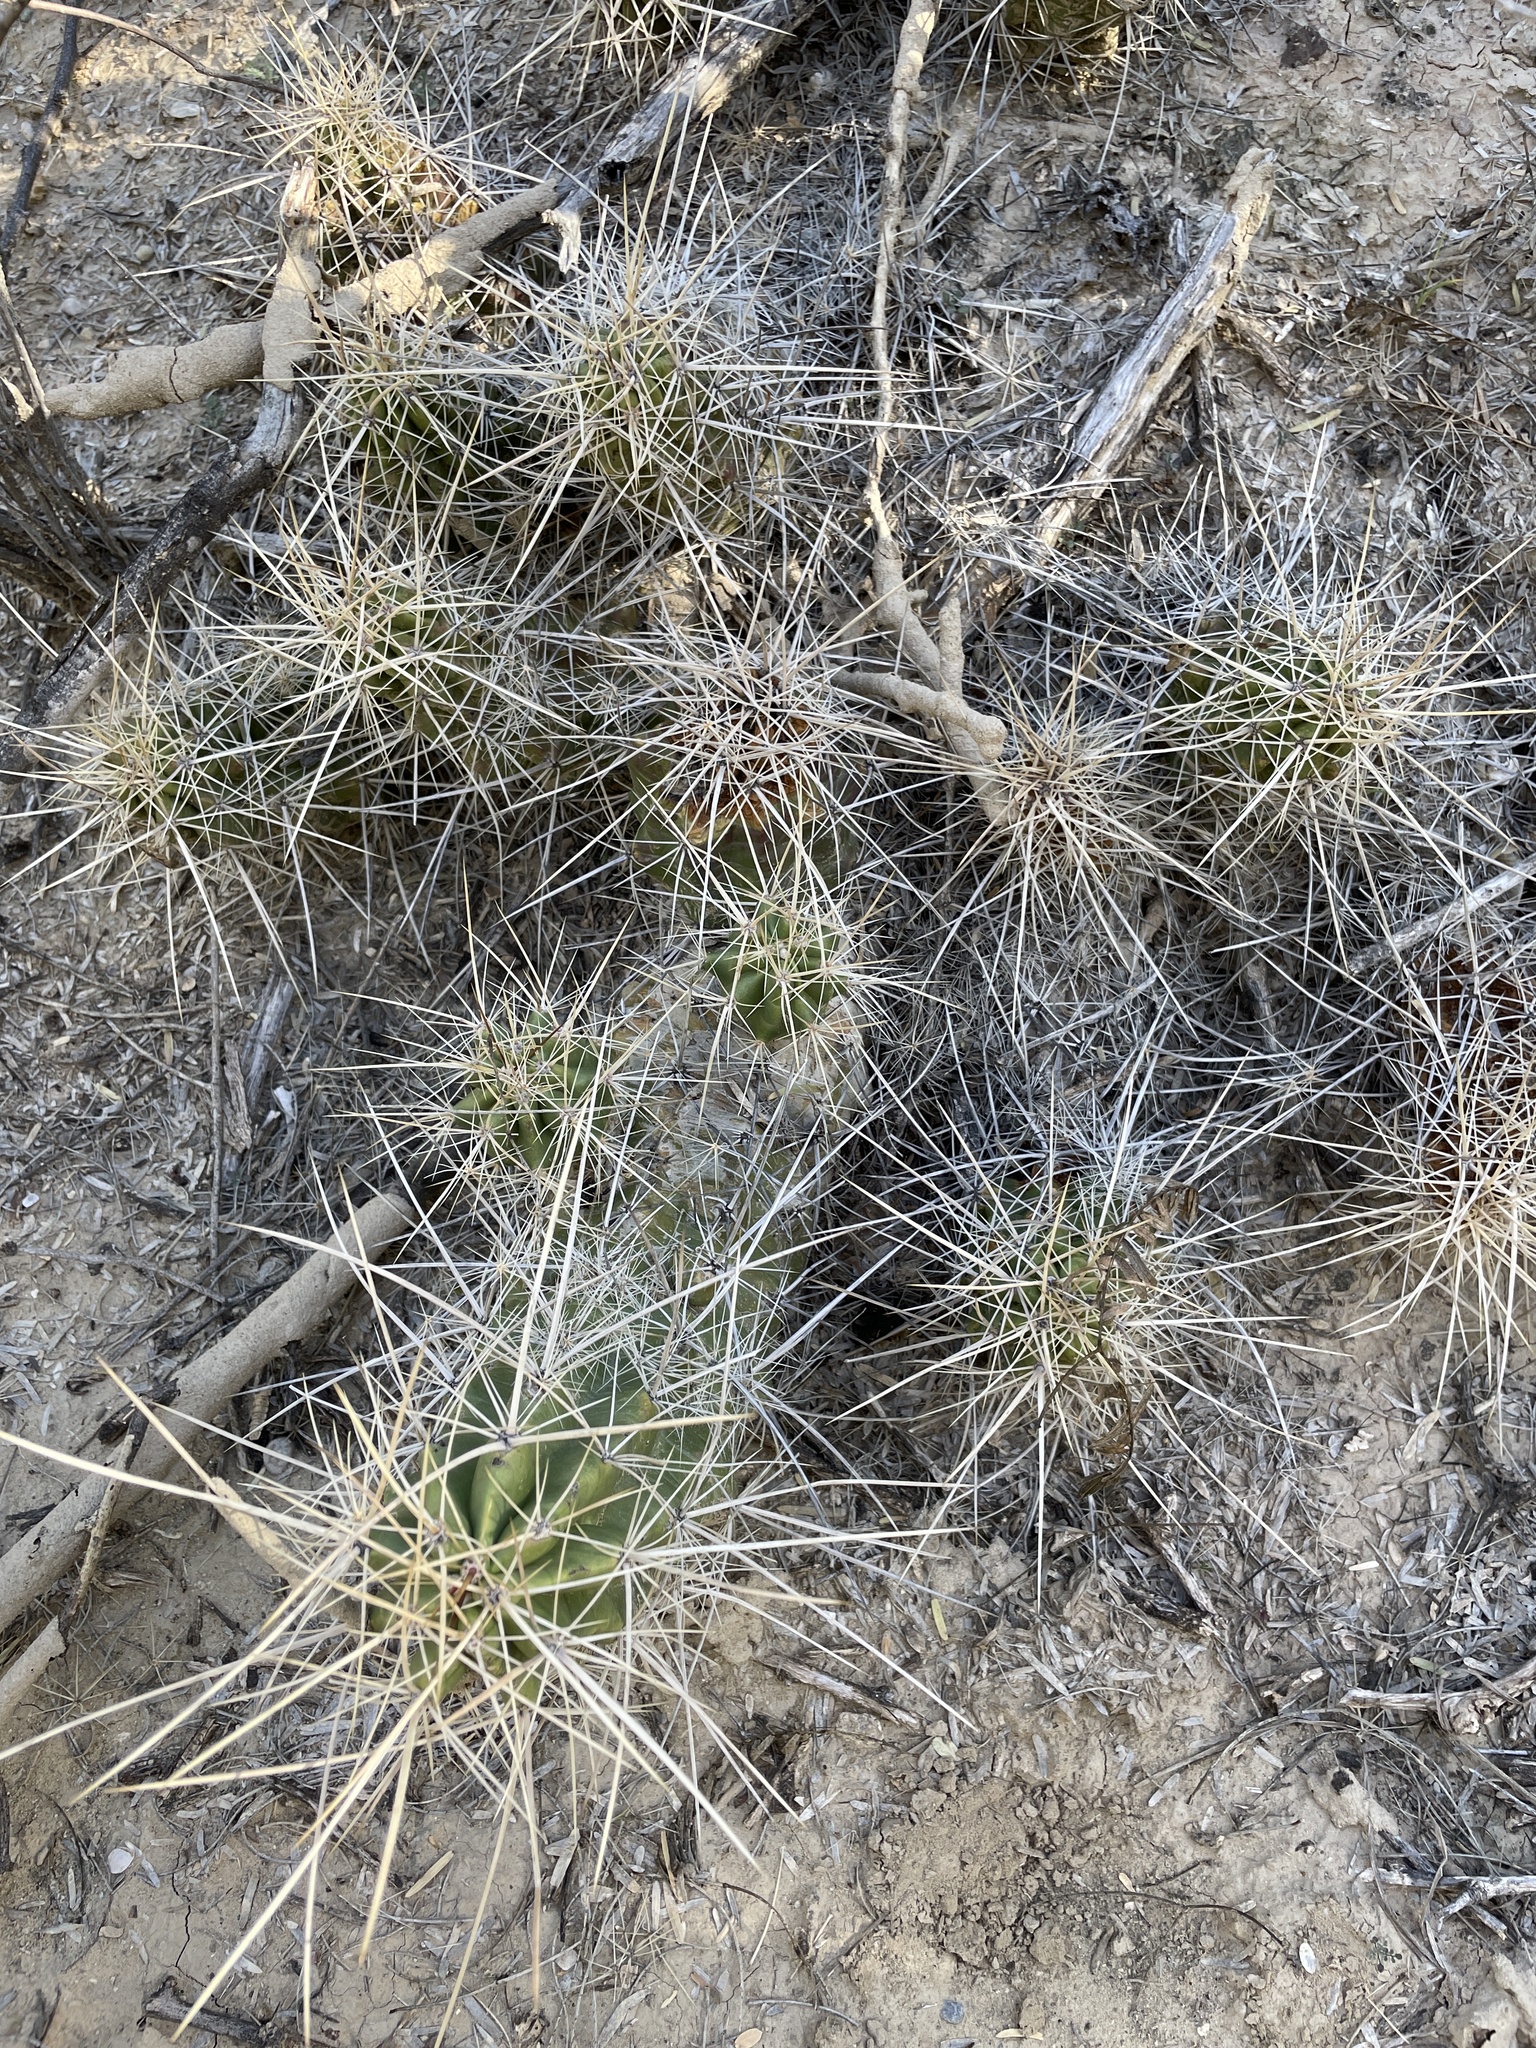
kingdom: Plantae
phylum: Tracheophyta
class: Magnoliopsida
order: Caryophyllales
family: Cactaceae
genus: Echinocereus
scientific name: Echinocereus enneacanthus
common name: Pitaya
